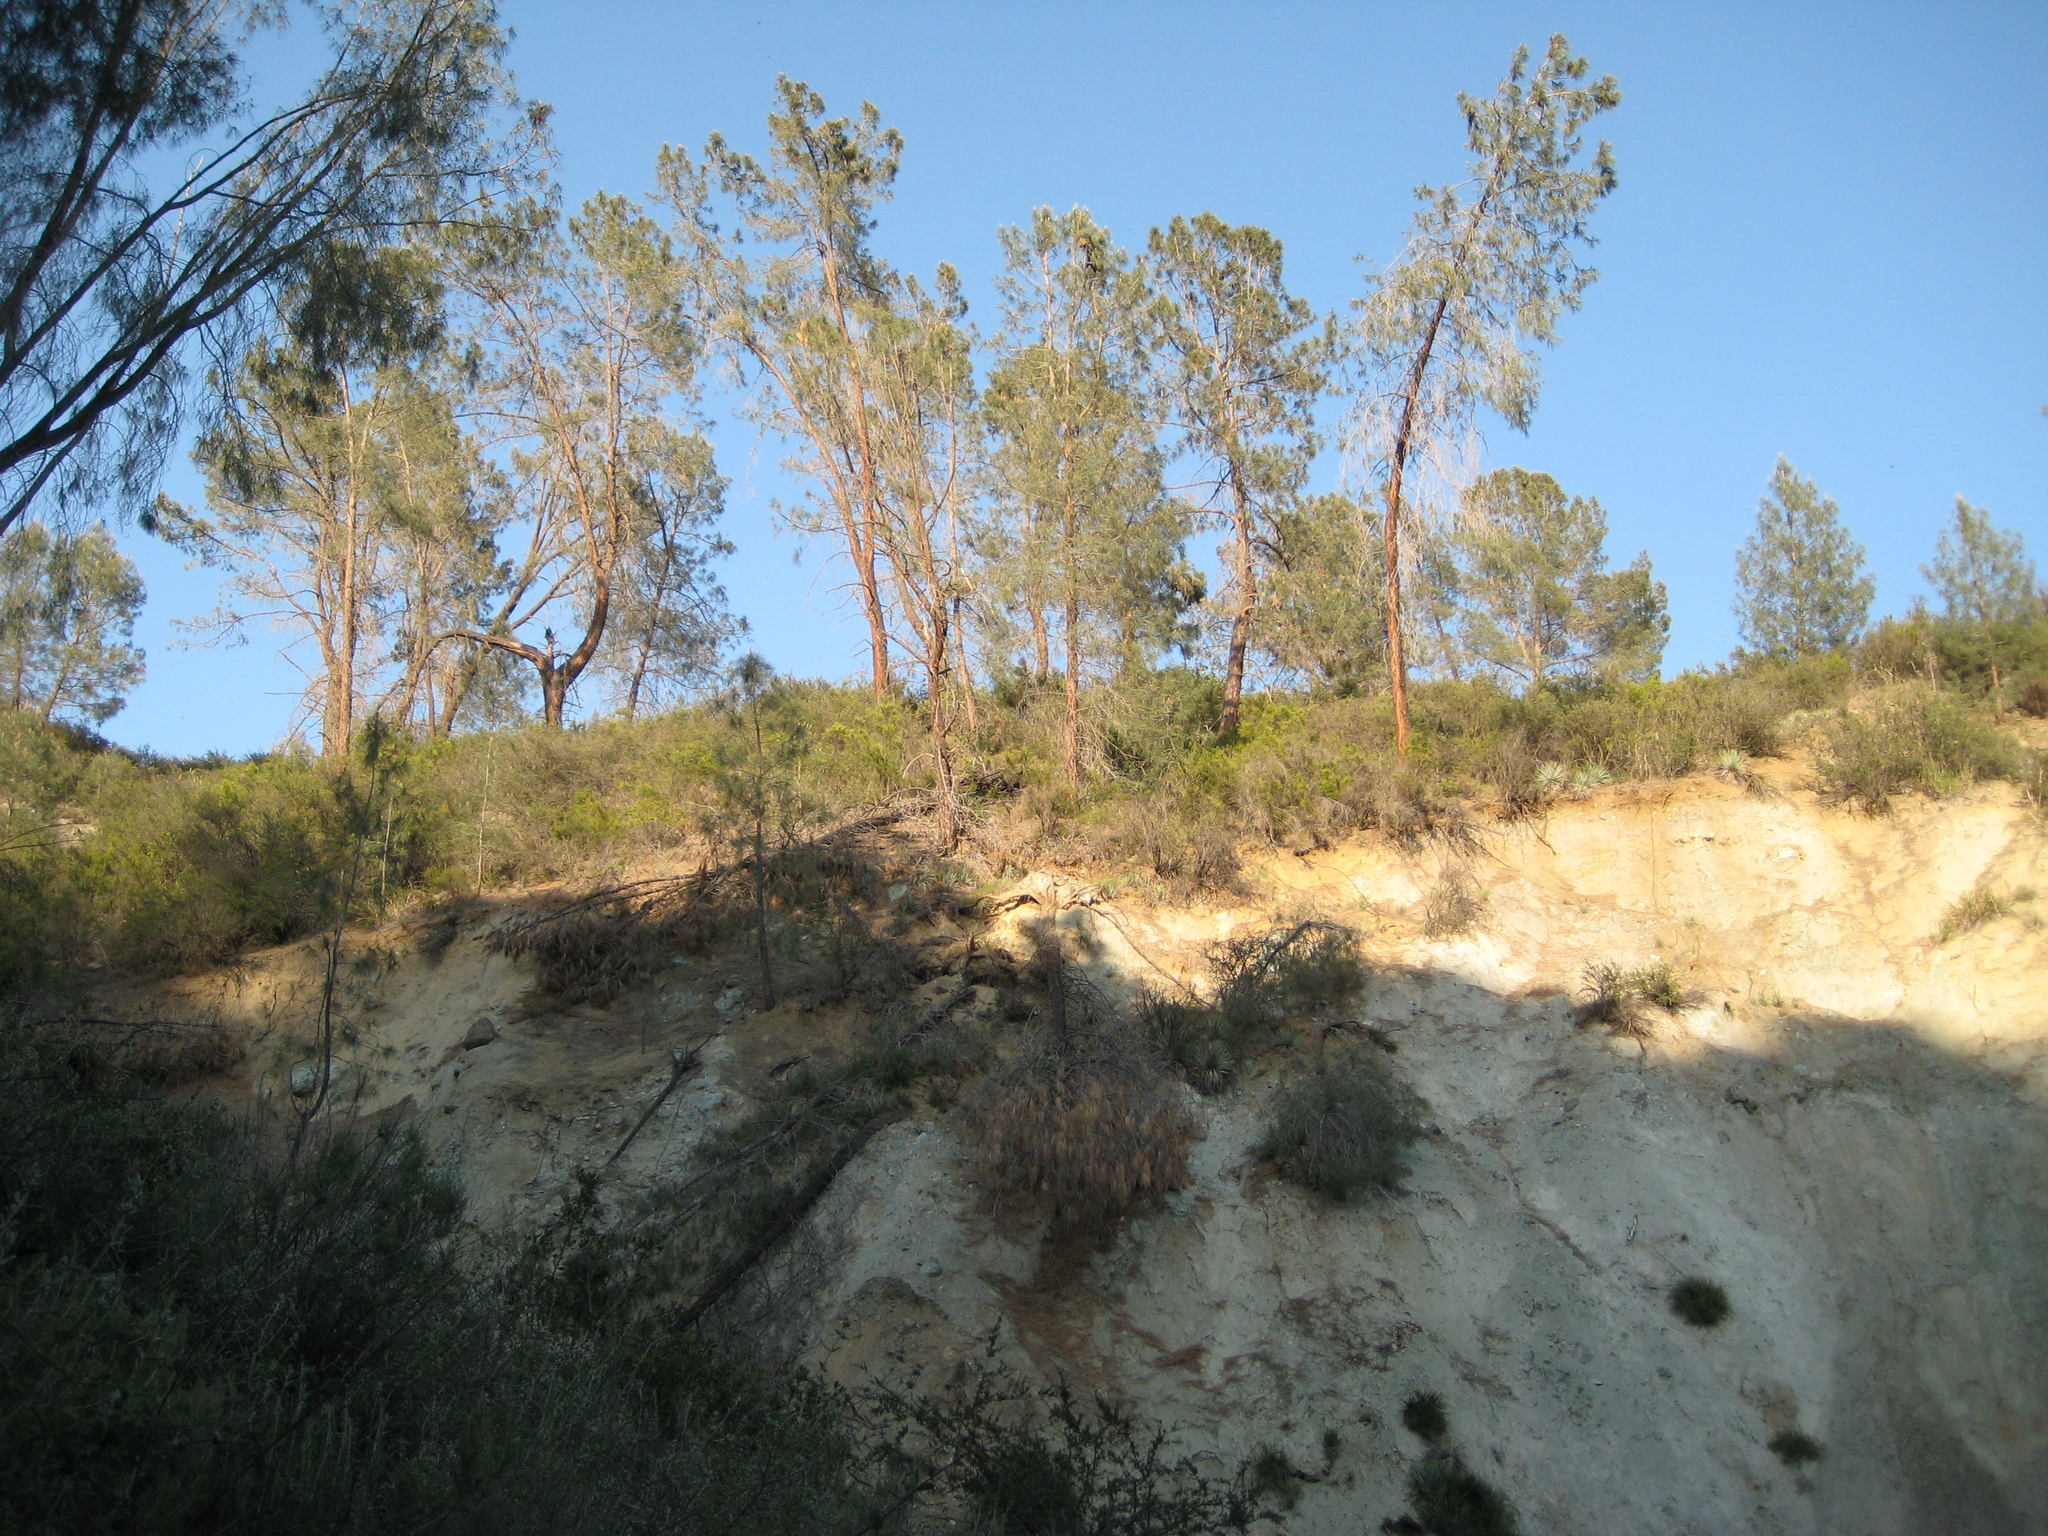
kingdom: Plantae
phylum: Tracheophyta
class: Pinopsida
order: Pinales
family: Pinaceae
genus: Pinus
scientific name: Pinus sabiniana
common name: Bull pine
